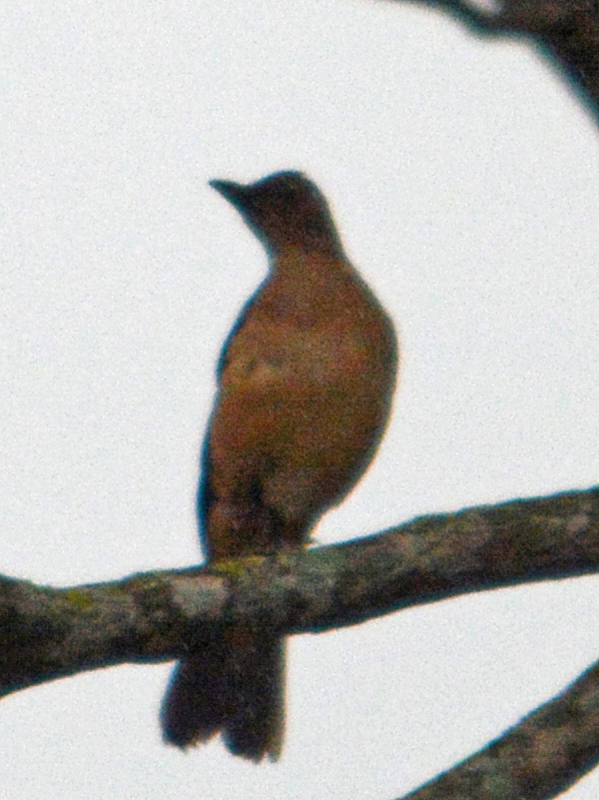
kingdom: Animalia
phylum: Chordata
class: Aves
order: Passeriformes
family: Turdidae
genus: Turdus
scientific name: Turdus grayi
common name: Clay-colored thrush
